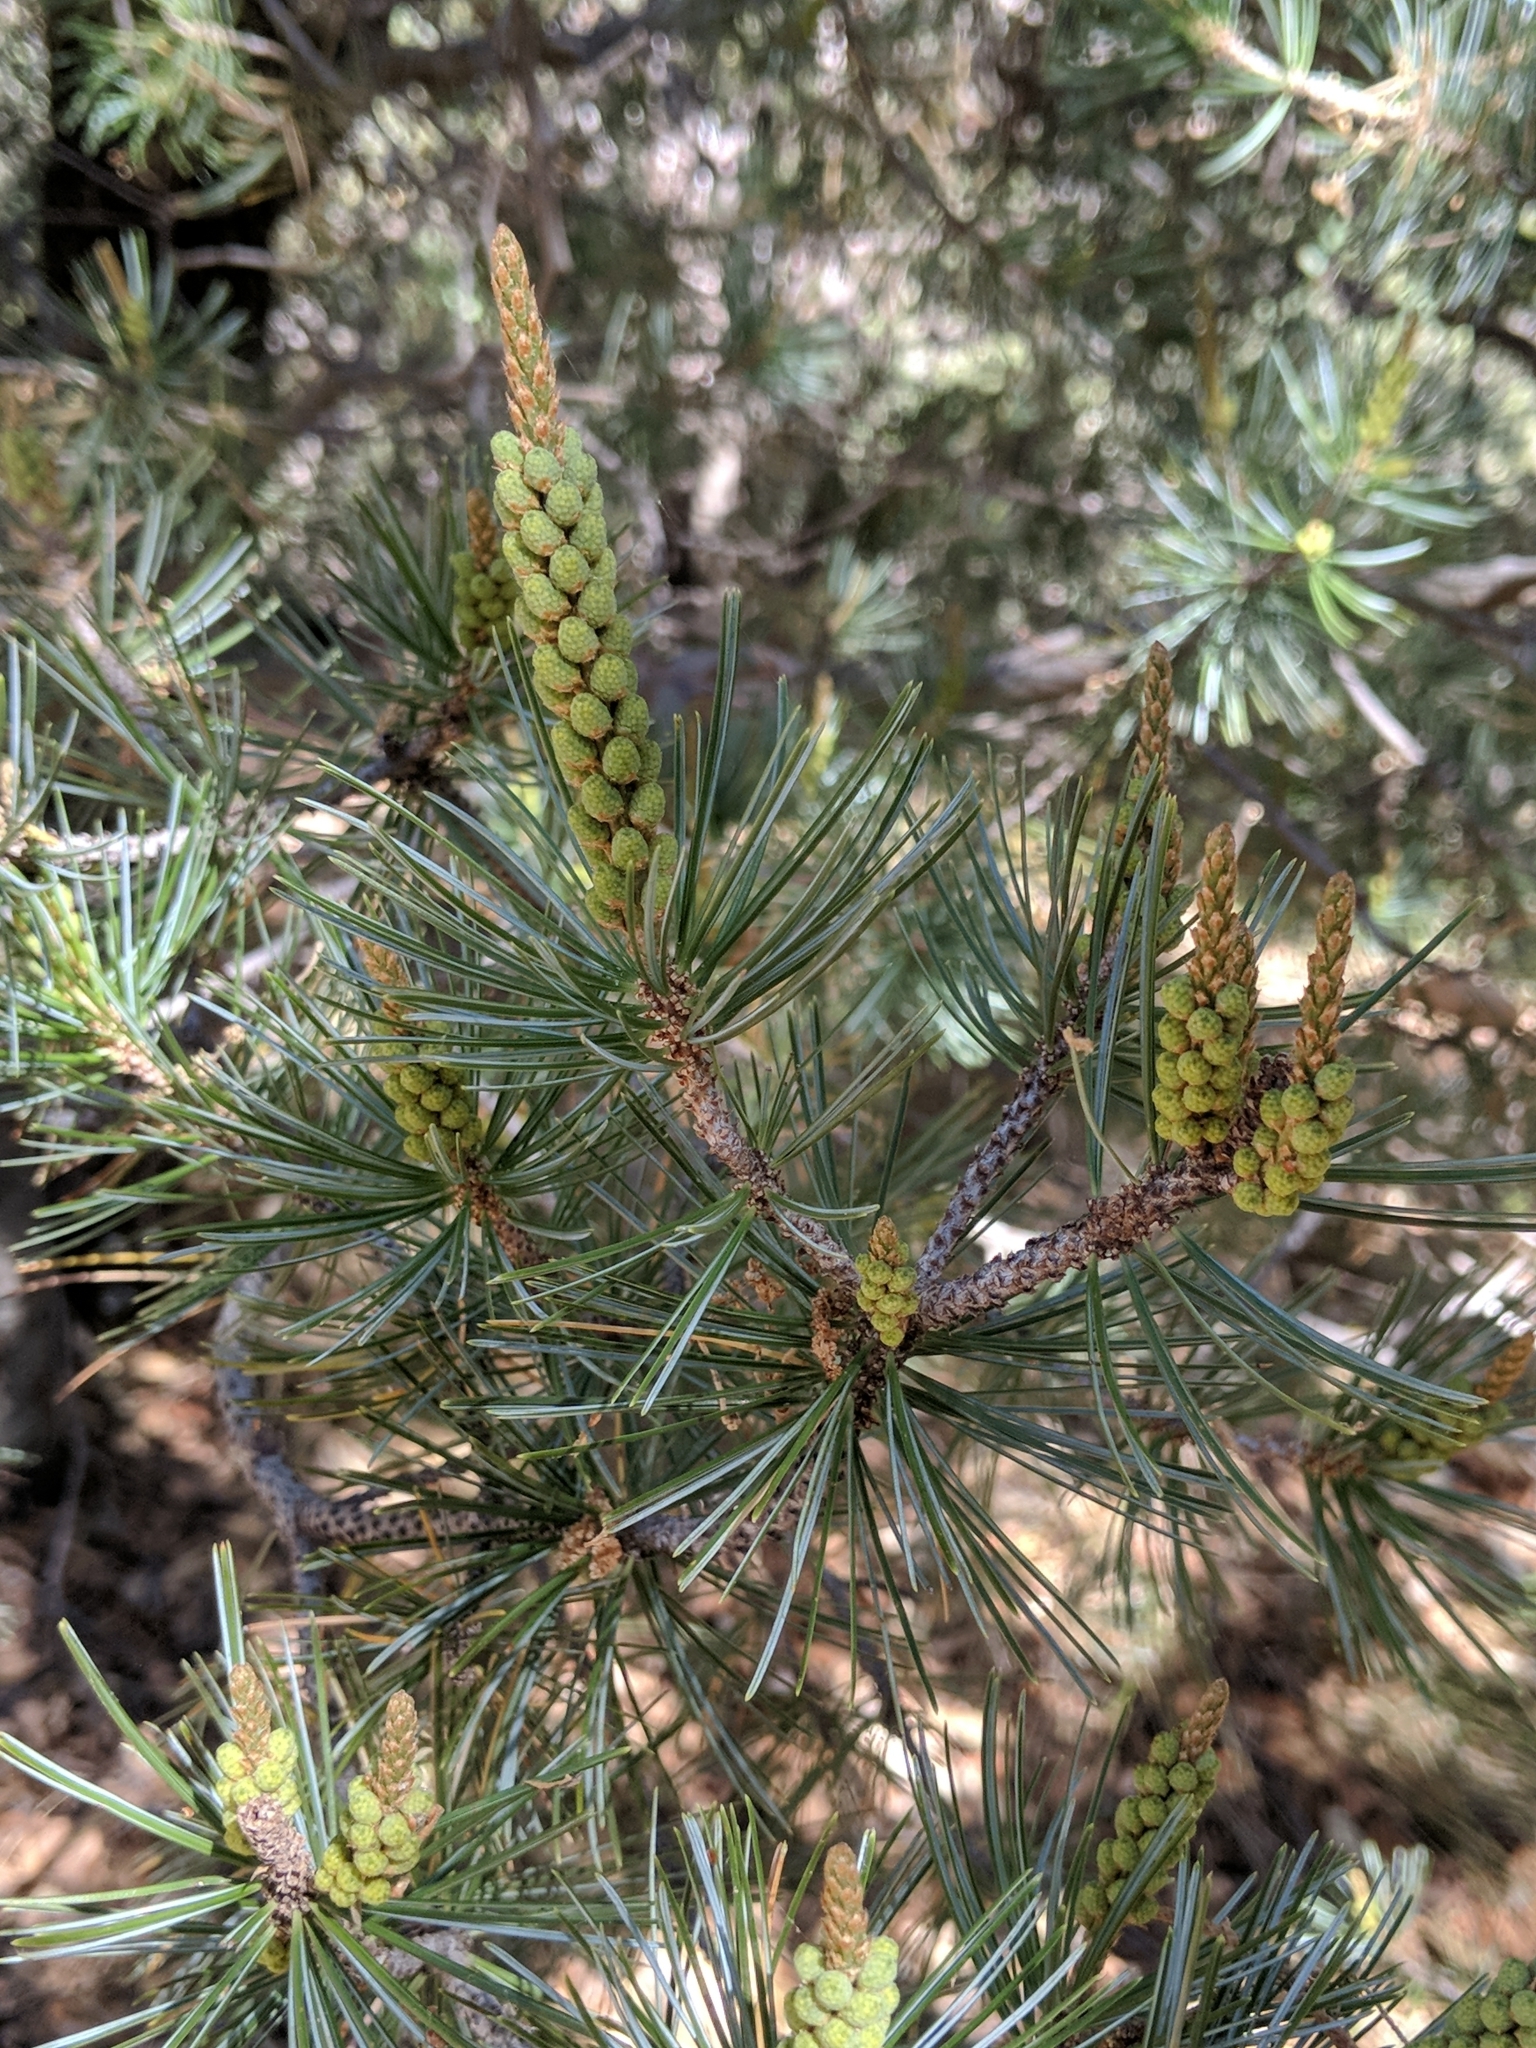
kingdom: Plantae
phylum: Tracheophyta
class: Pinopsida
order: Pinales
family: Pinaceae
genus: Pinus
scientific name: Pinus discolor
